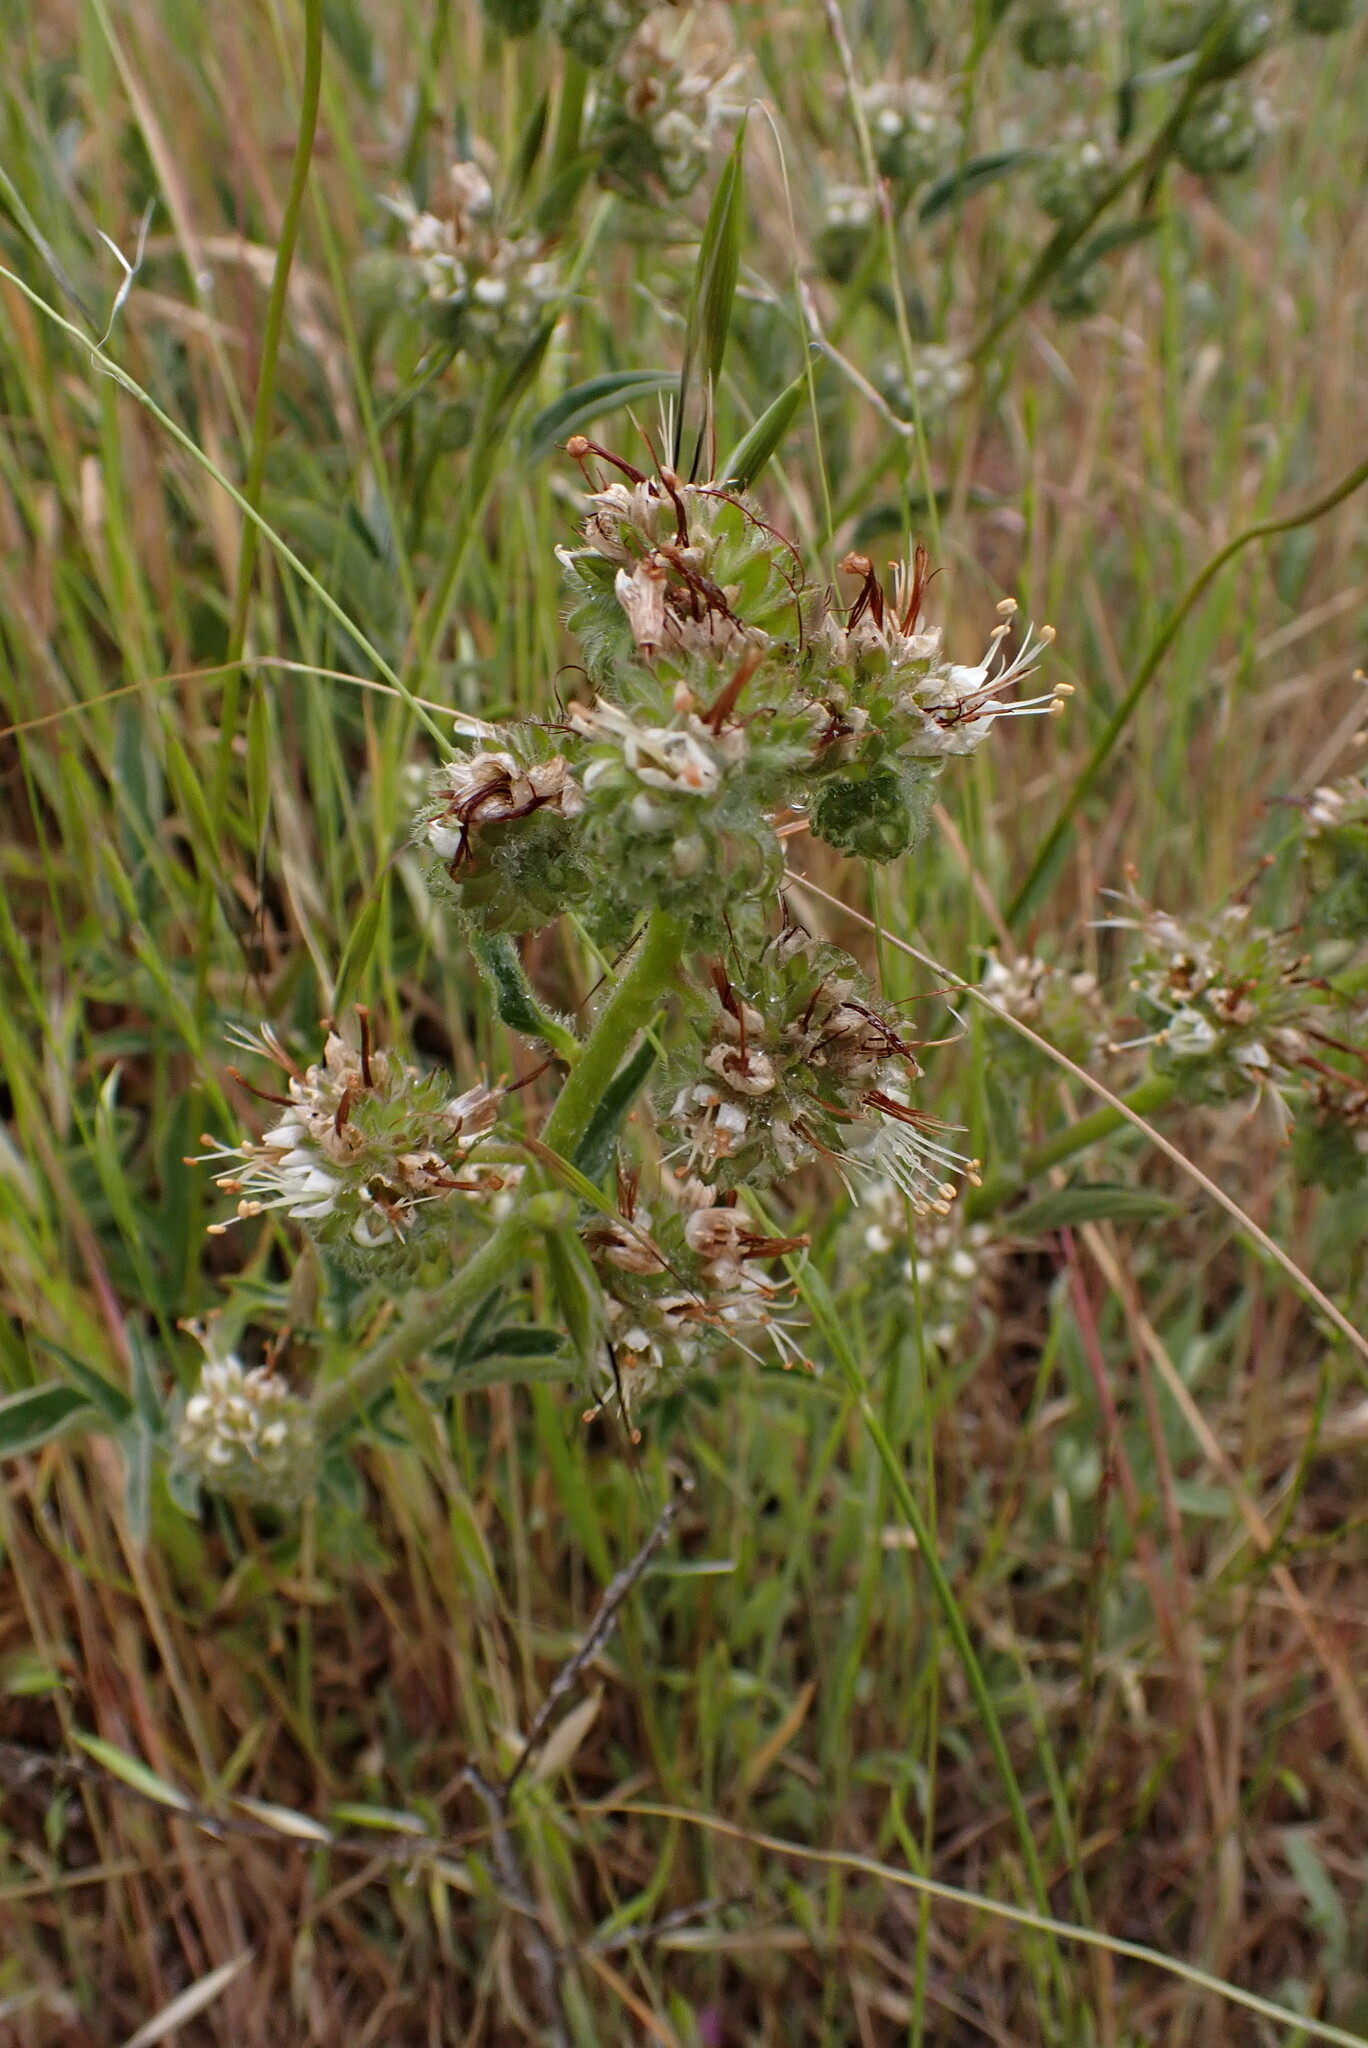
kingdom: Plantae
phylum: Tracheophyta
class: Magnoliopsida
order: Boraginales
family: Hydrophyllaceae
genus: Phacelia
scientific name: Phacelia imbricata
